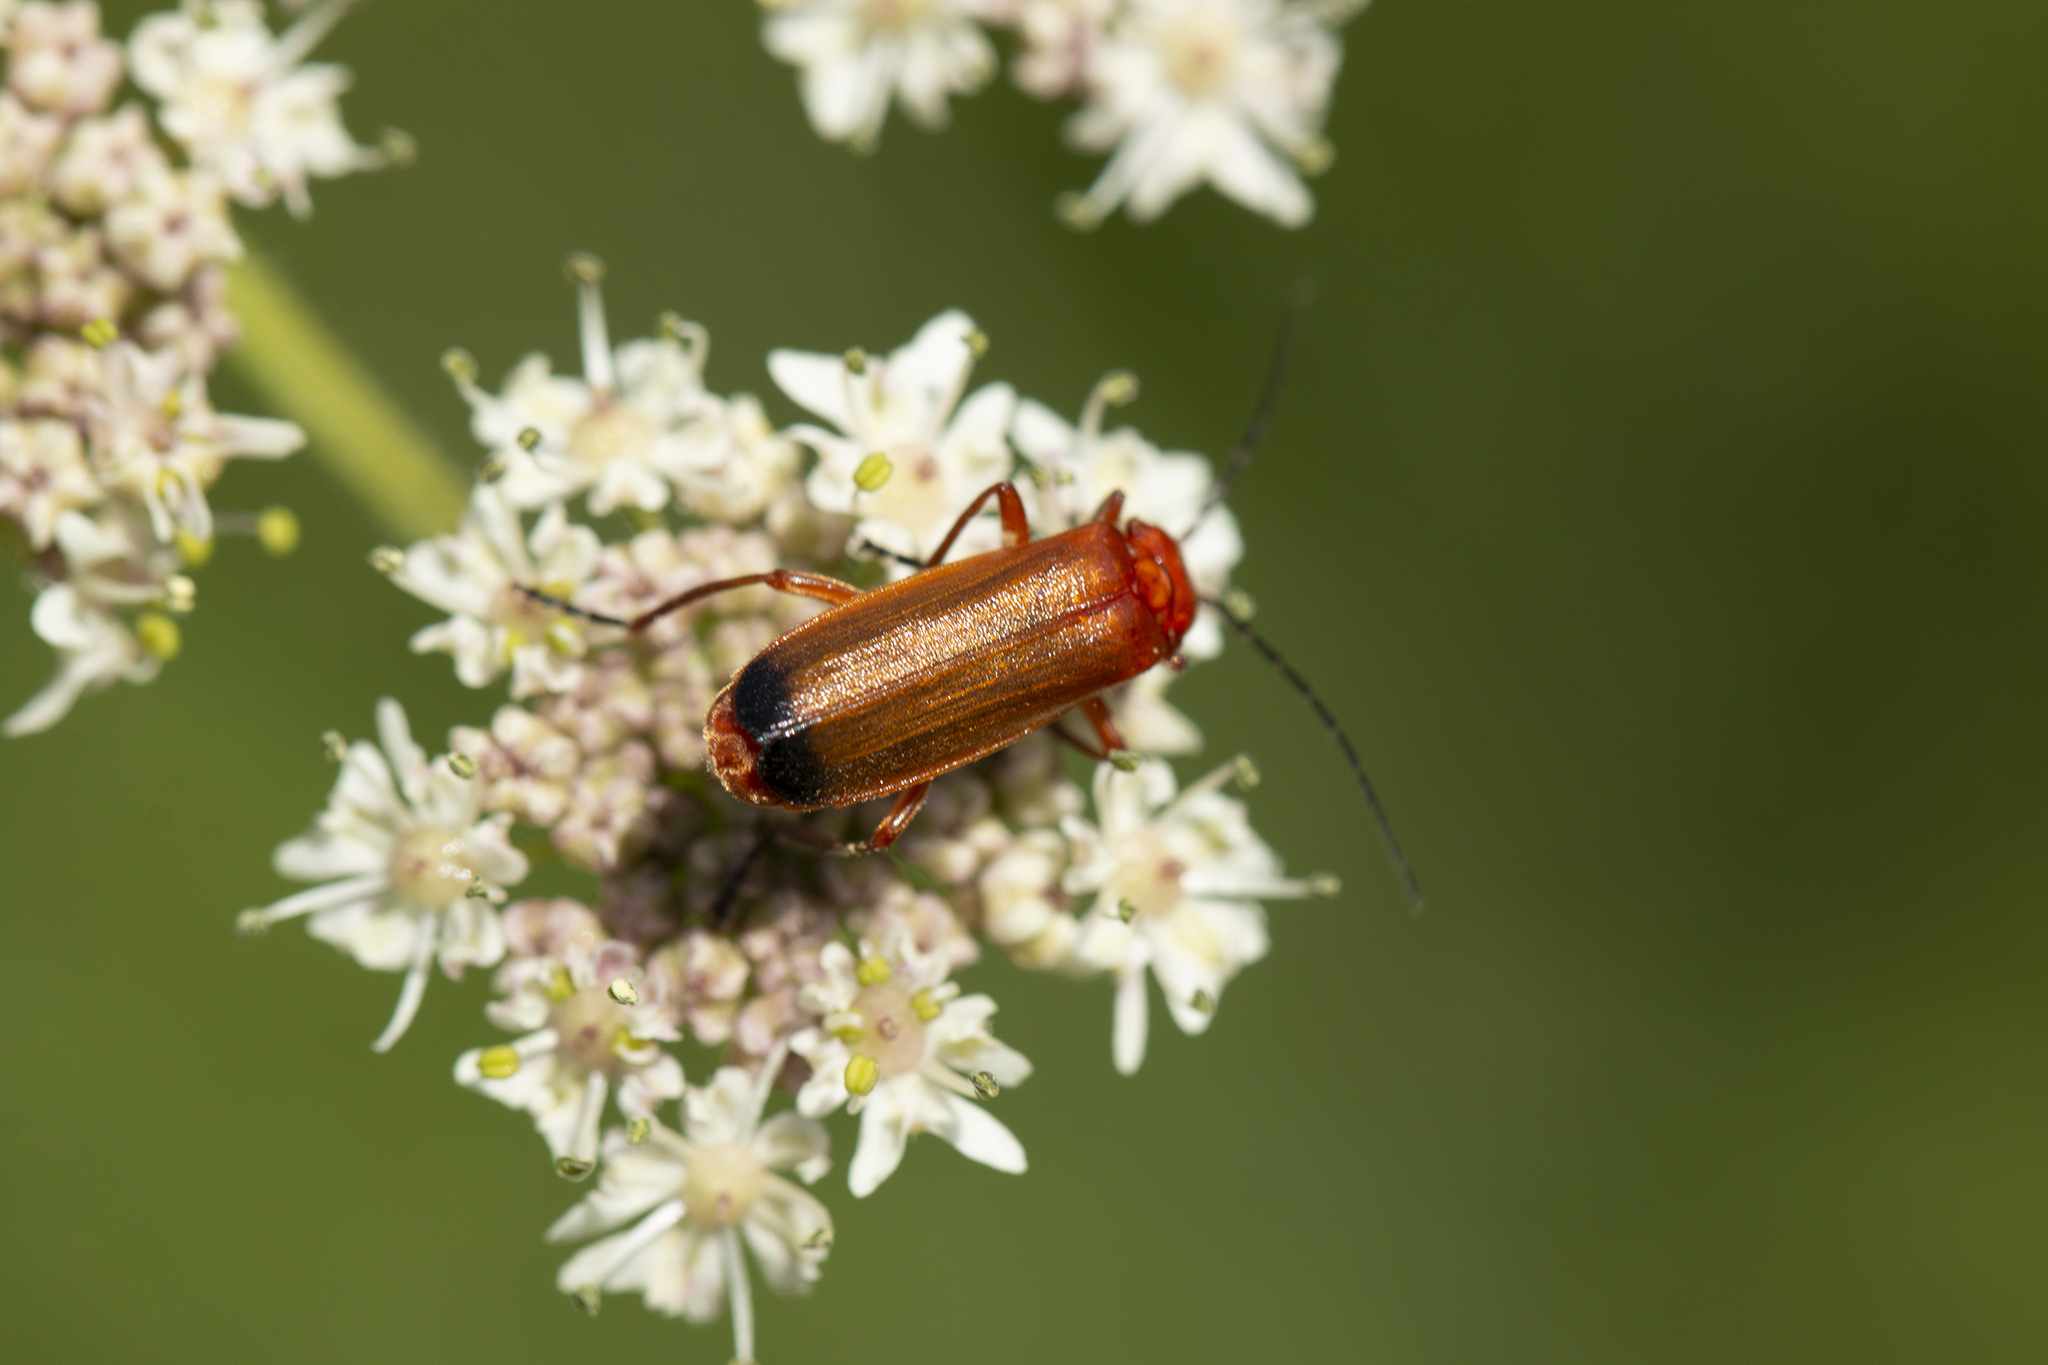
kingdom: Animalia
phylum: Arthropoda
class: Insecta
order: Coleoptera
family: Cantharidae
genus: Rhagonycha
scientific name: Rhagonycha fulva
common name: Common red soldier beetle
